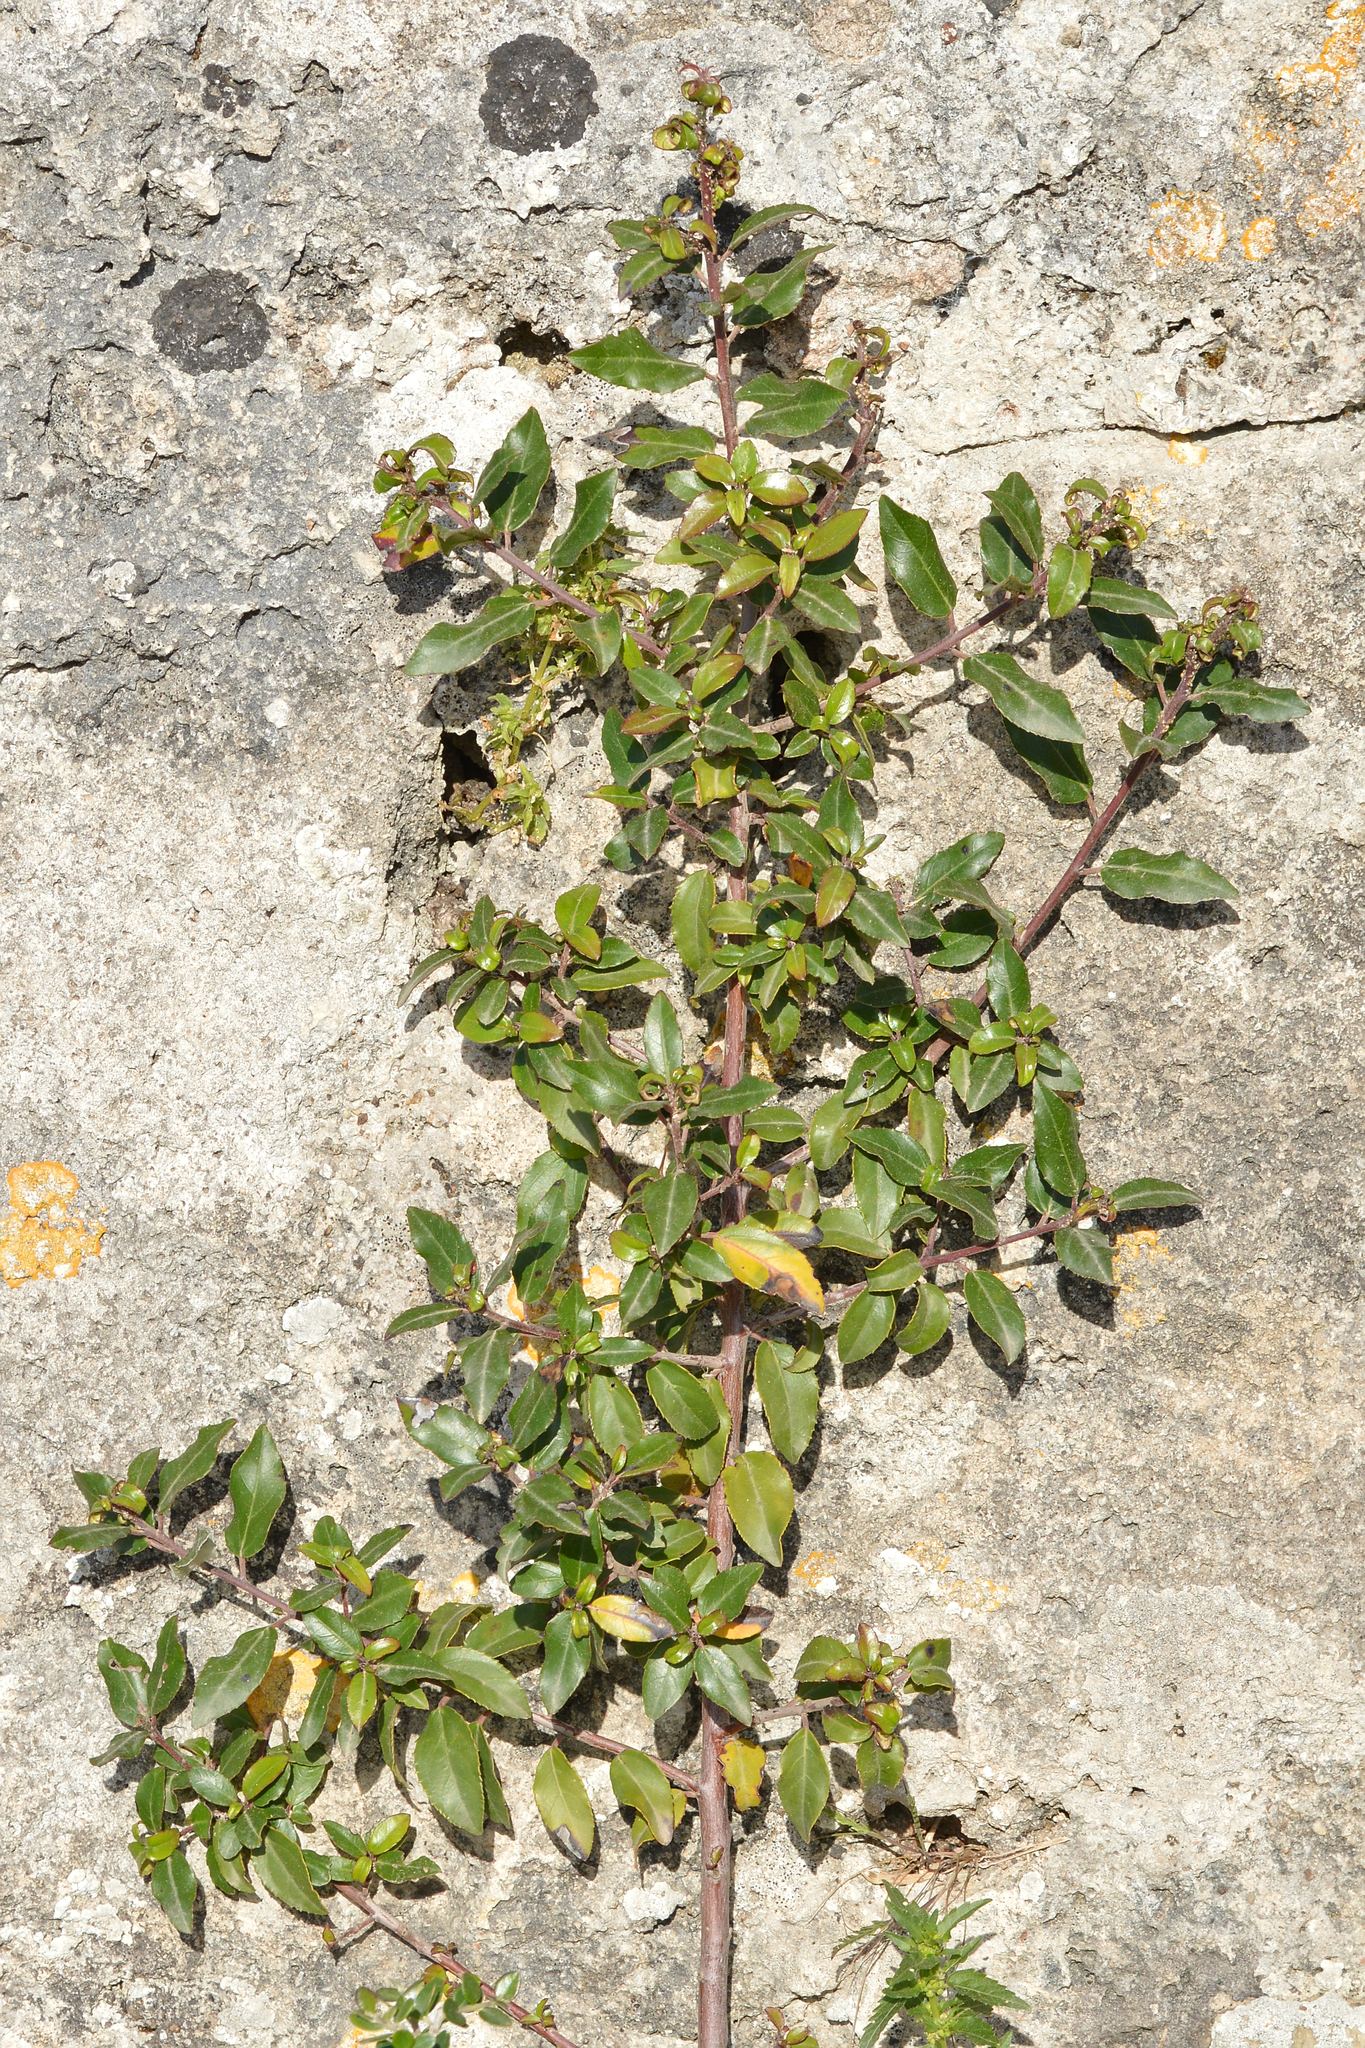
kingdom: Plantae
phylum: Tracheophyta
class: Magnoliopsida
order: Rosales
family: Rhamnaceae
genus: Rhamnus
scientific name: Rhamnus alaternus
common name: Mediterranean buckthorn
